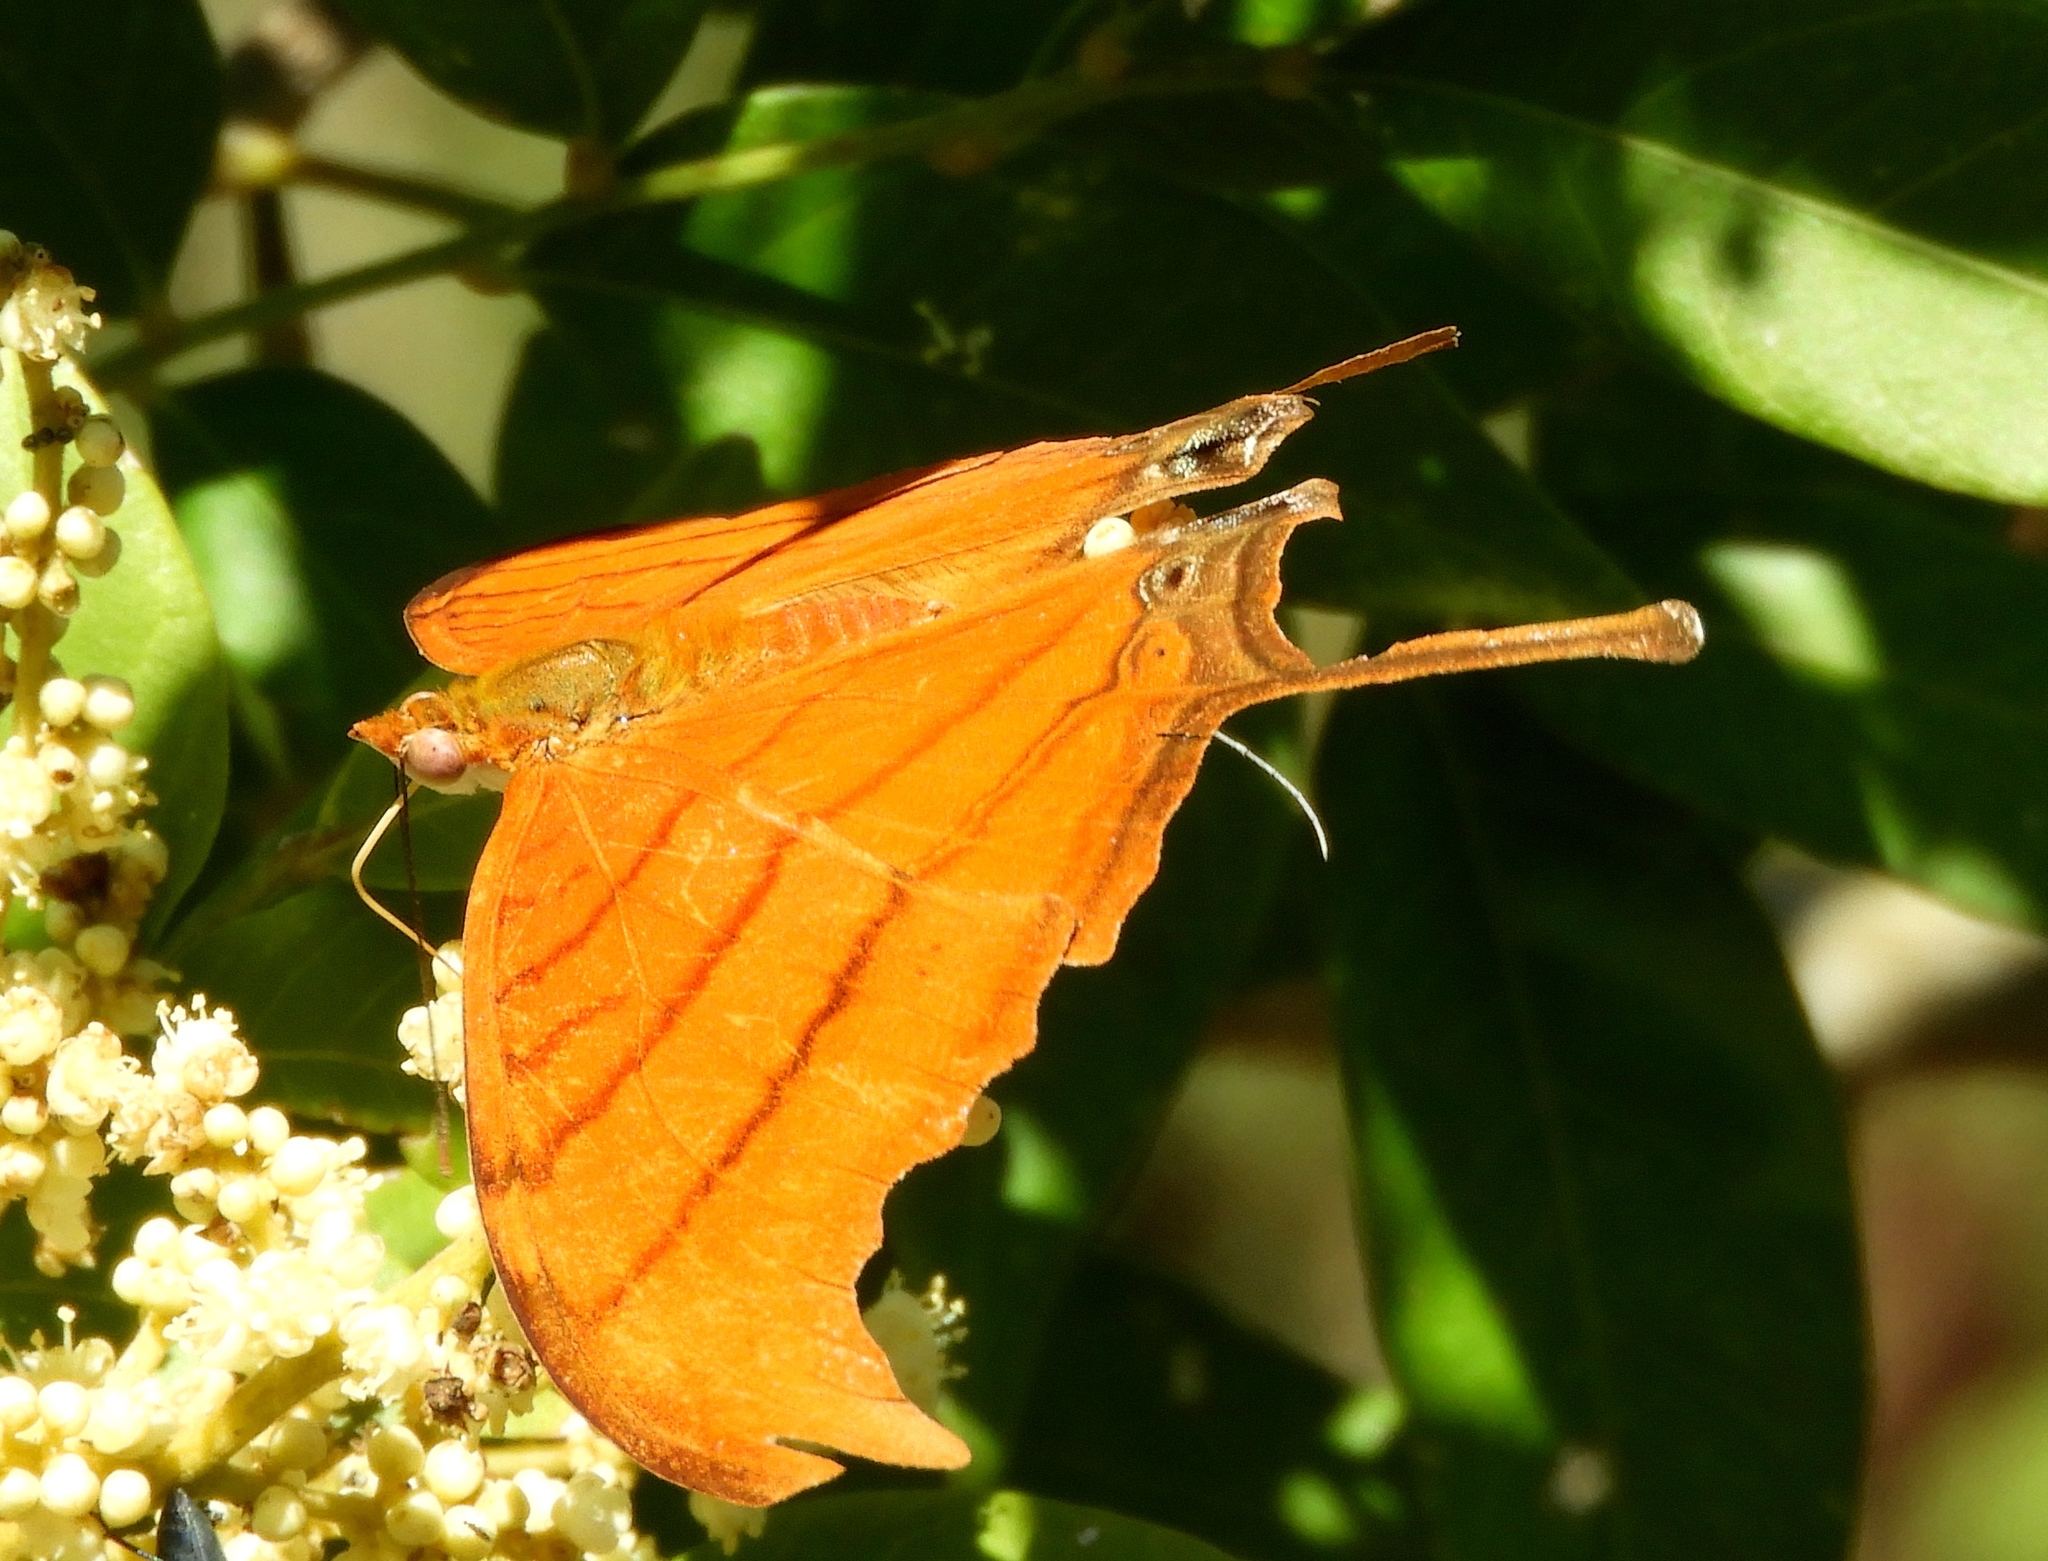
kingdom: Animalia
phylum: Arthropoda
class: Insecta
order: Lepidoptera
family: Nymphalidae
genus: Marpesia
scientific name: Marpesia petreus
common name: Red dagger wing
